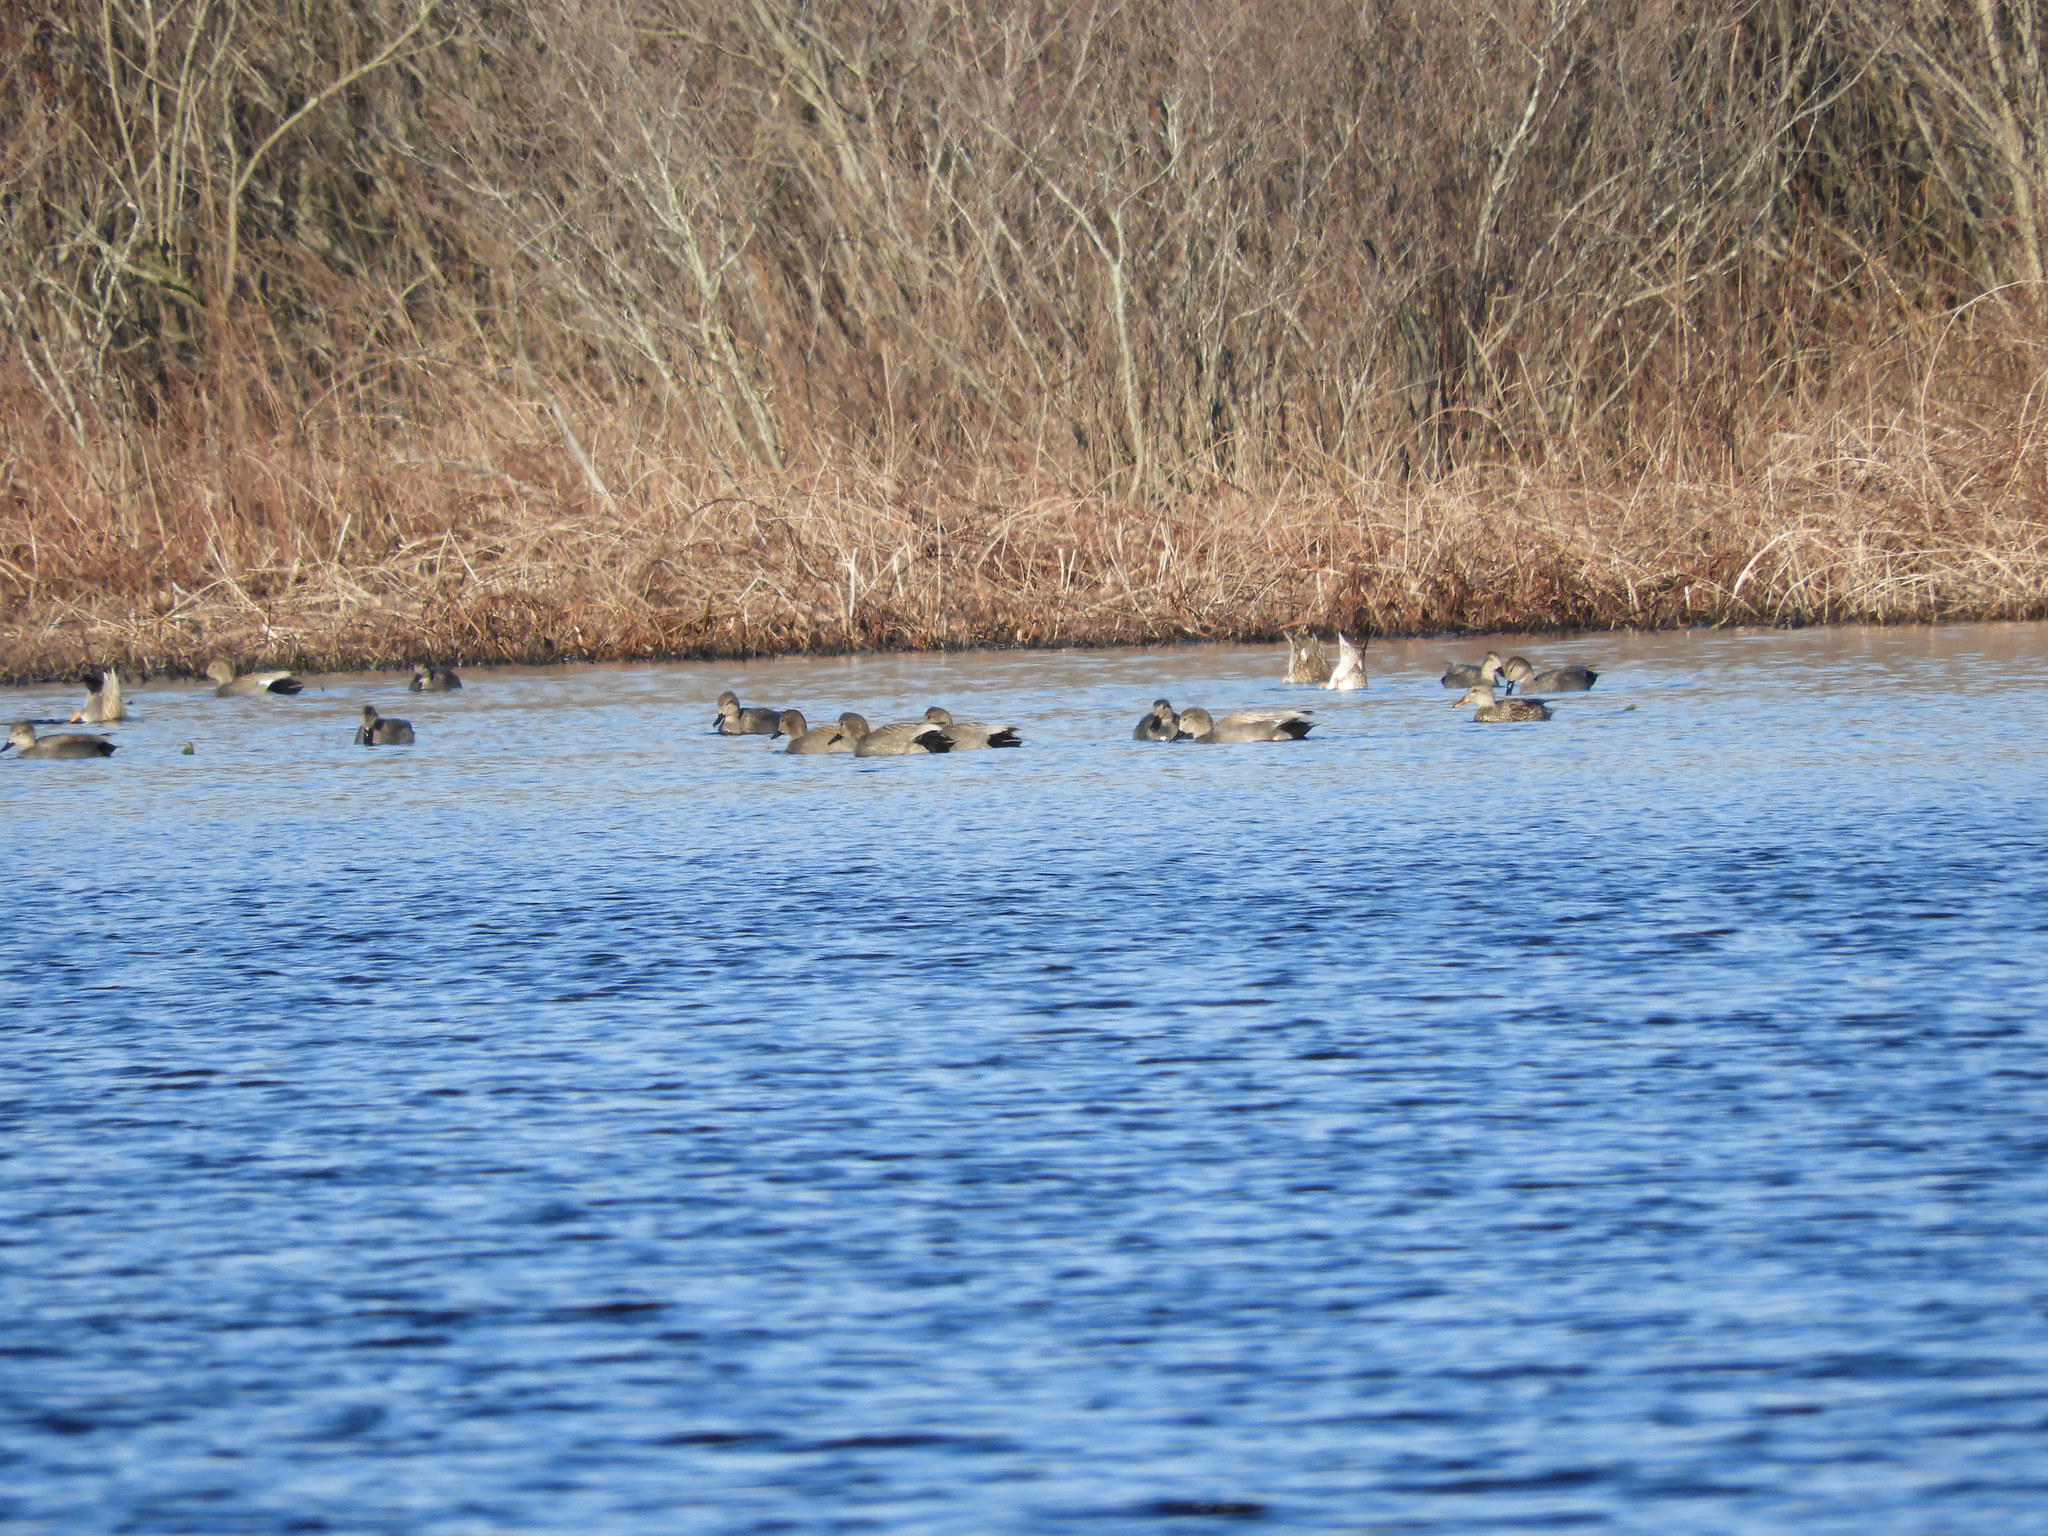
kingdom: Animalia
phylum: Chordata
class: Aves
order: Anseriformes
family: Anatidae
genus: Mareca
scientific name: Mareca strepera
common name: Gadwall
